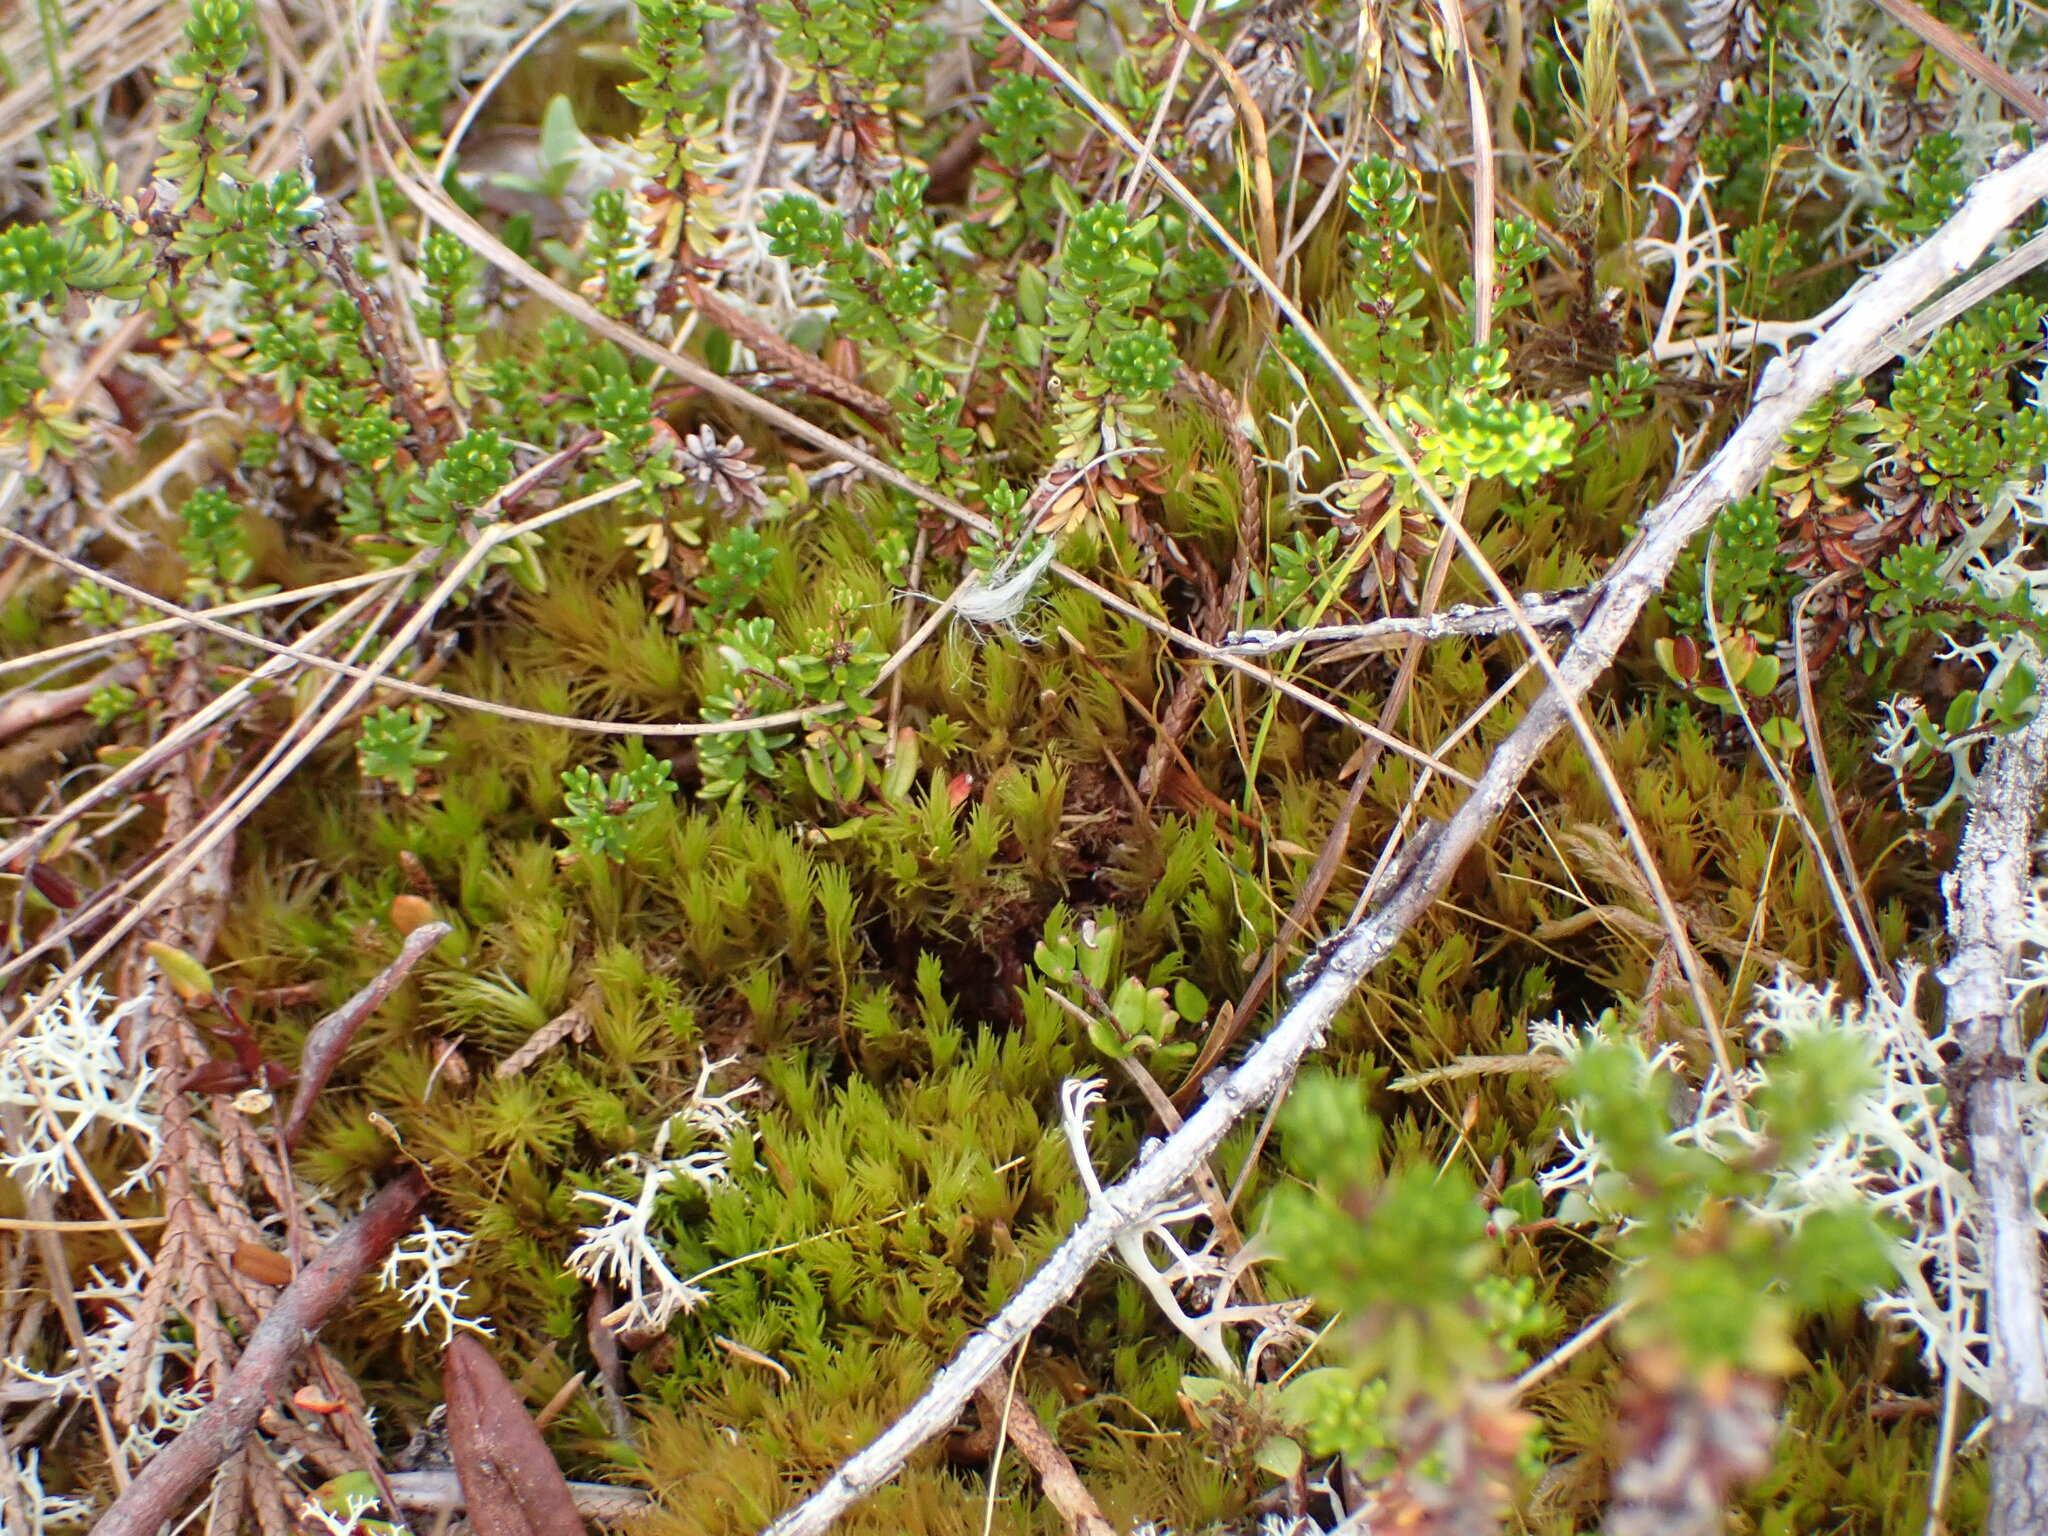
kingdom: Plantae
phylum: Bryophyta
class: Bryopsida
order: Dicranales
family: Dicranaceae
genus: Dicranum
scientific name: Dicranum undulatum
